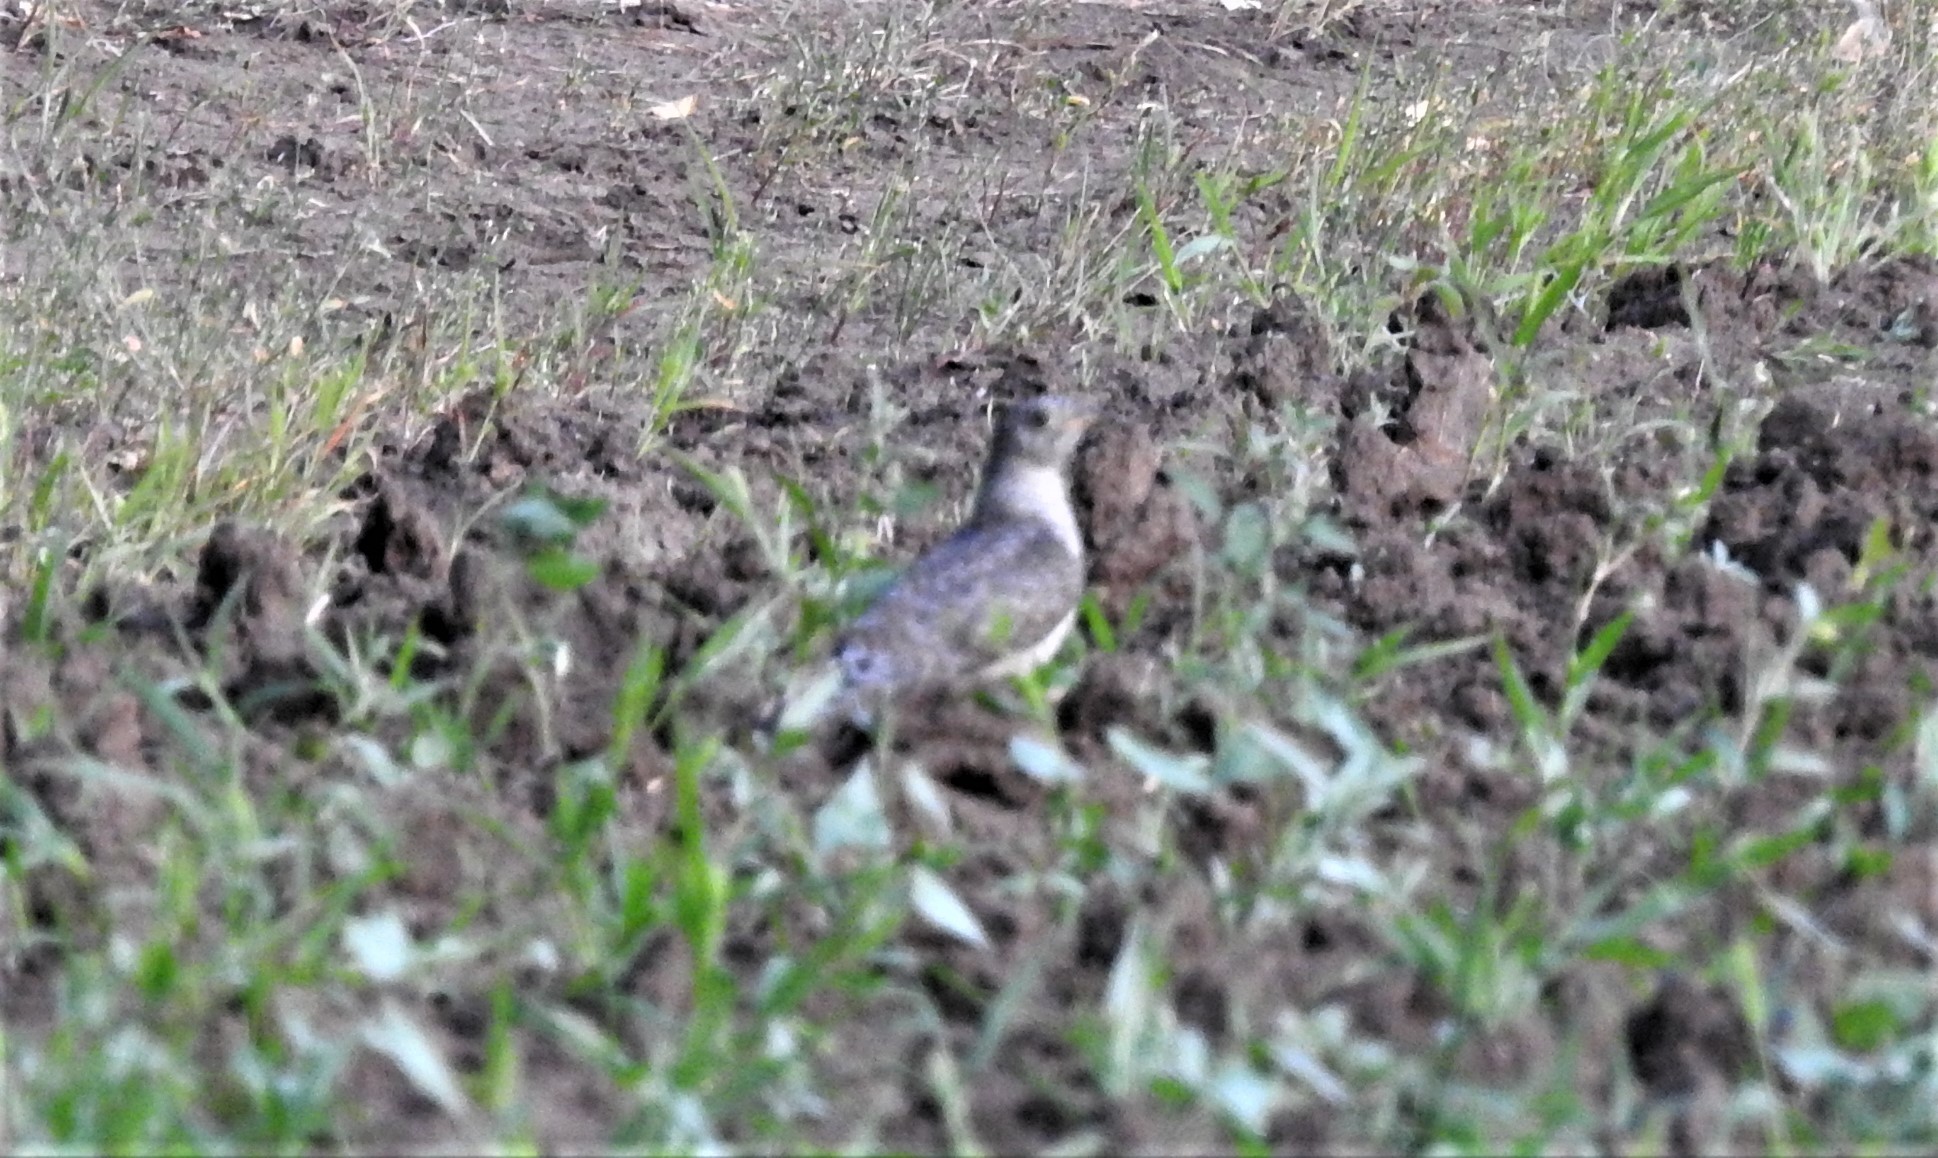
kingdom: Animalia
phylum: Chordata
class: Aves
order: Cuculiformes
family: Cuculidae
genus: Cuculus
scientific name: Cuculus canorus
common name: Common cuckoo
